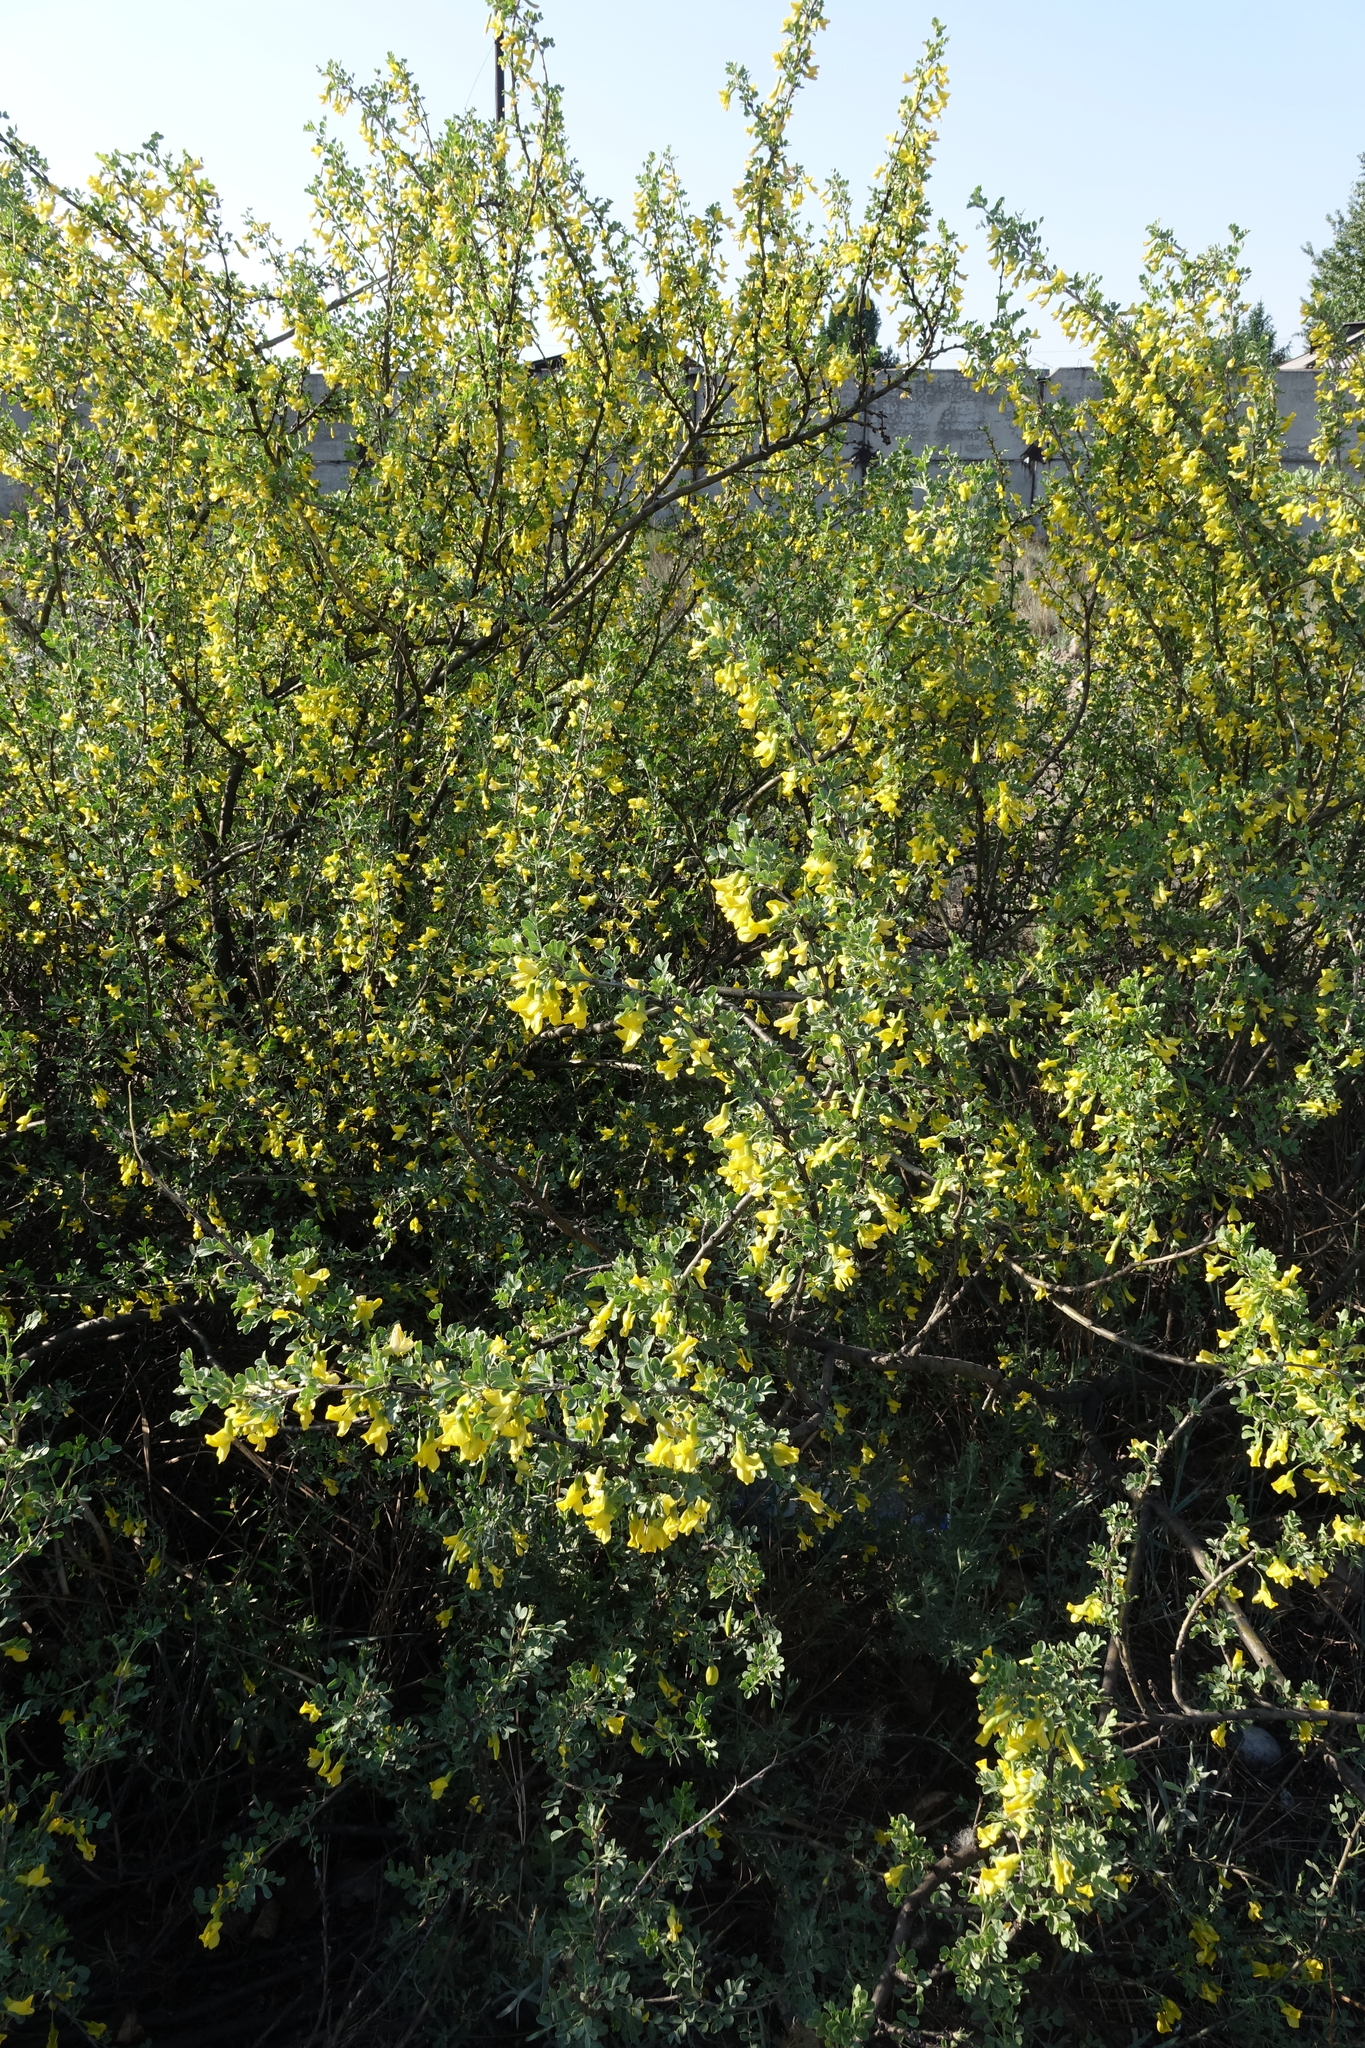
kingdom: Plantae
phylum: Tracheophyta
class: Magnoliopsida
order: Fabales
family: Fabaceae
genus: Caragana
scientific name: Caragana bungei
